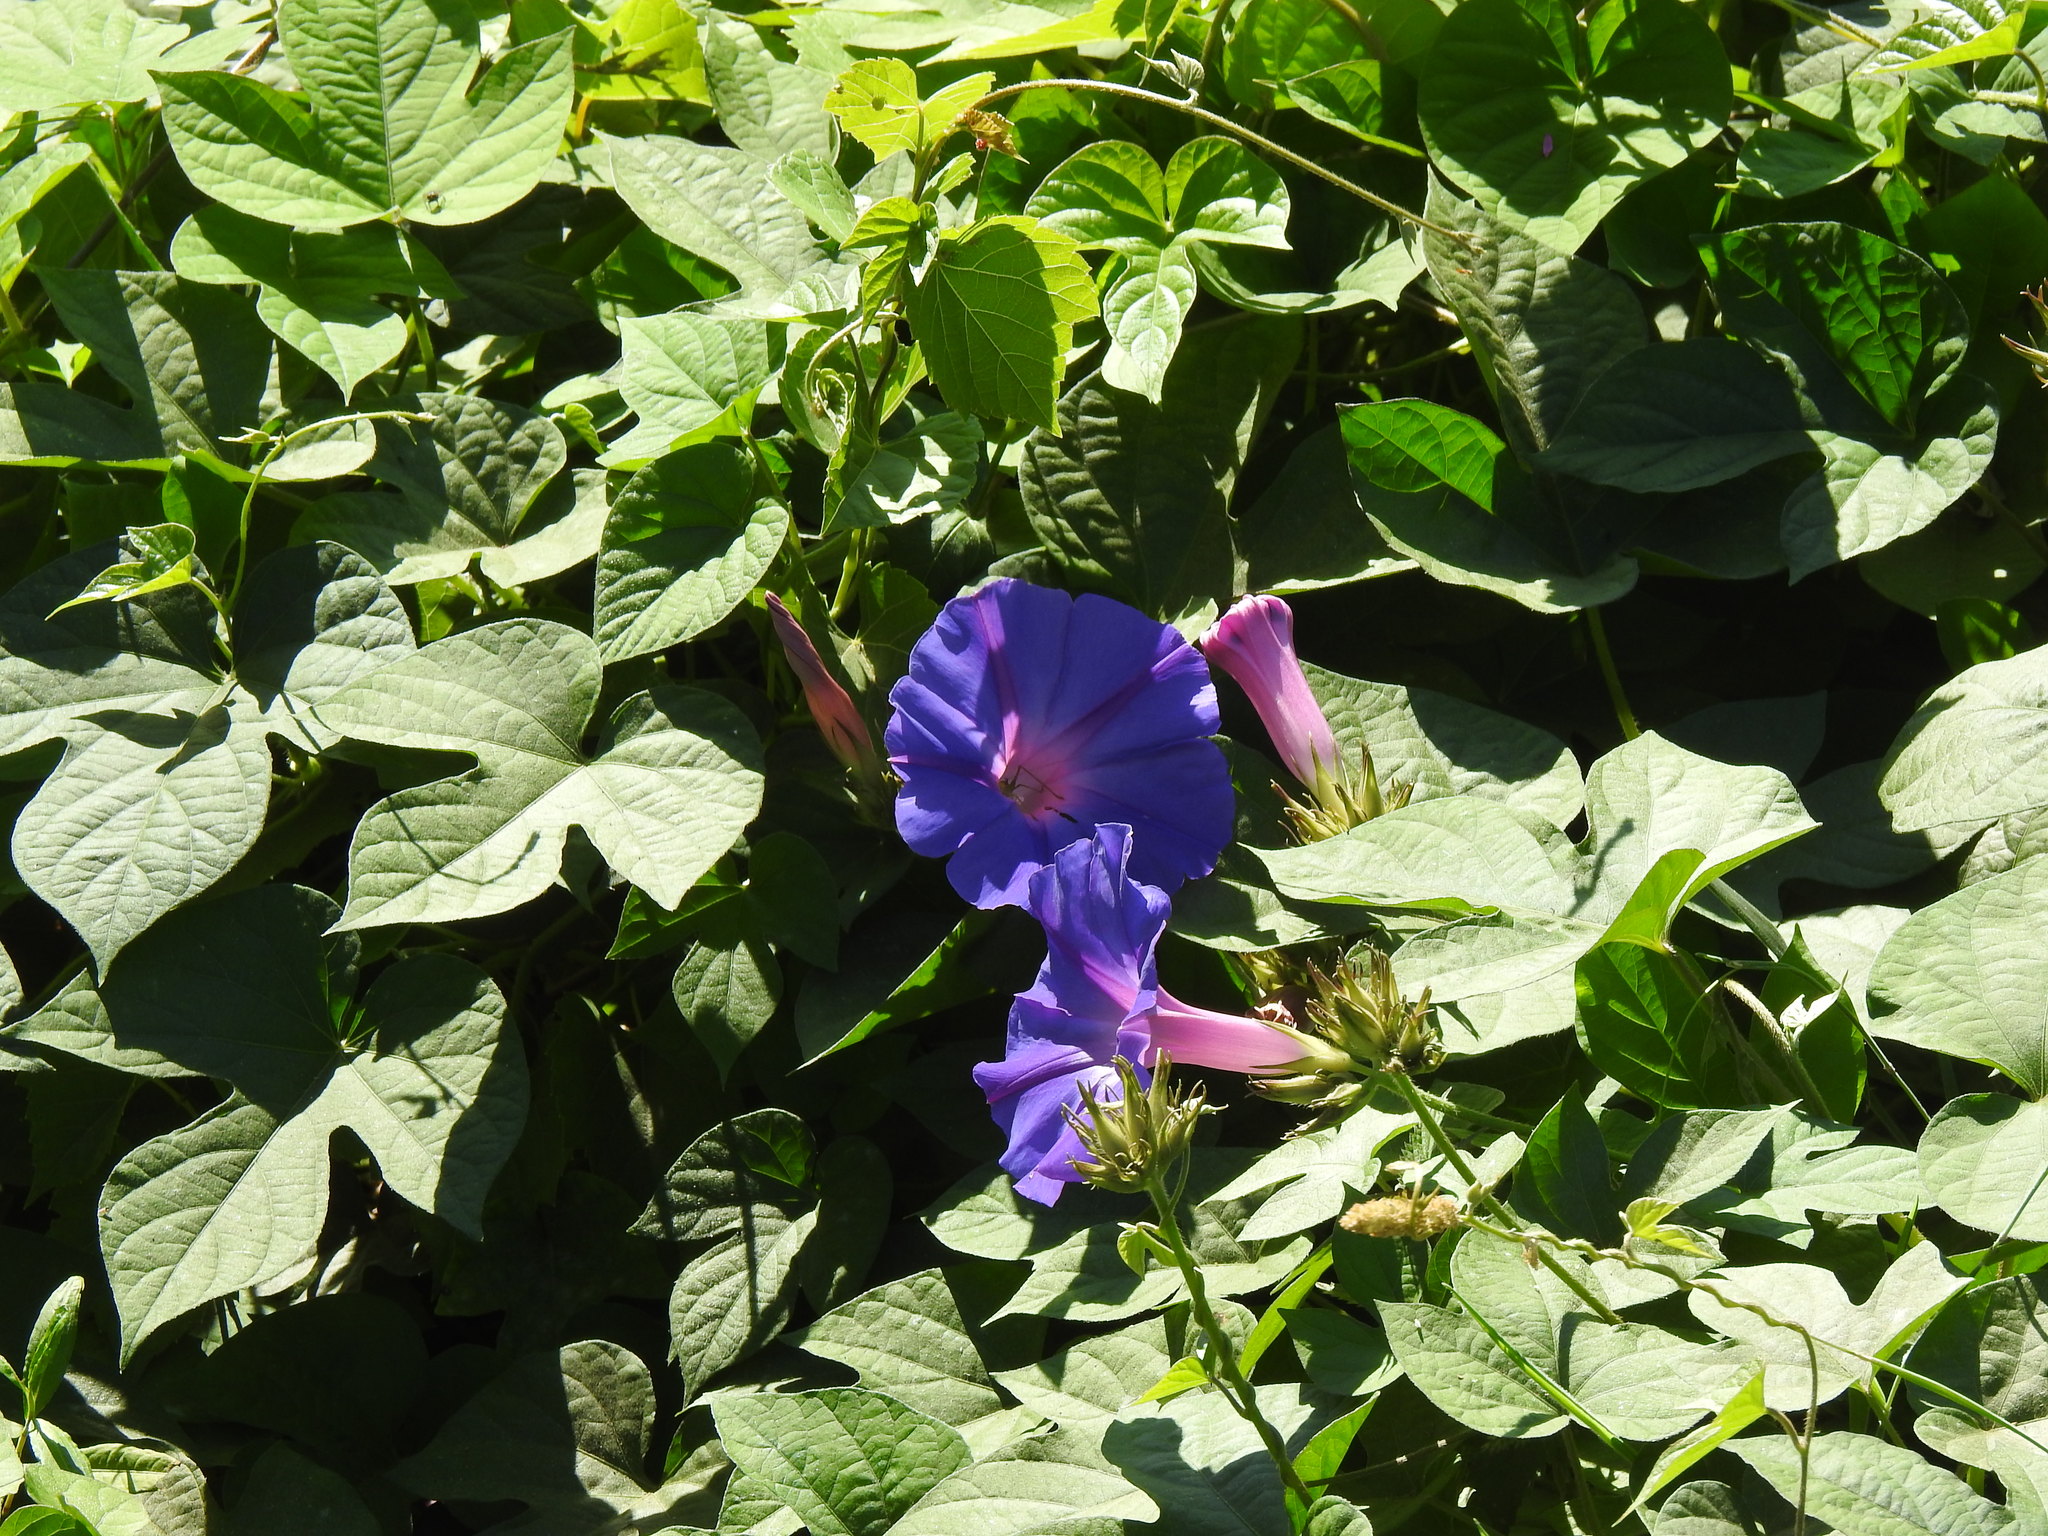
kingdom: Plantae
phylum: Tracheophyta
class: Magnoliopsida
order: Solanales
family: Convolvulaceae
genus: Ipomoea
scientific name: Ipomoea indica
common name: Blue dawnflower
